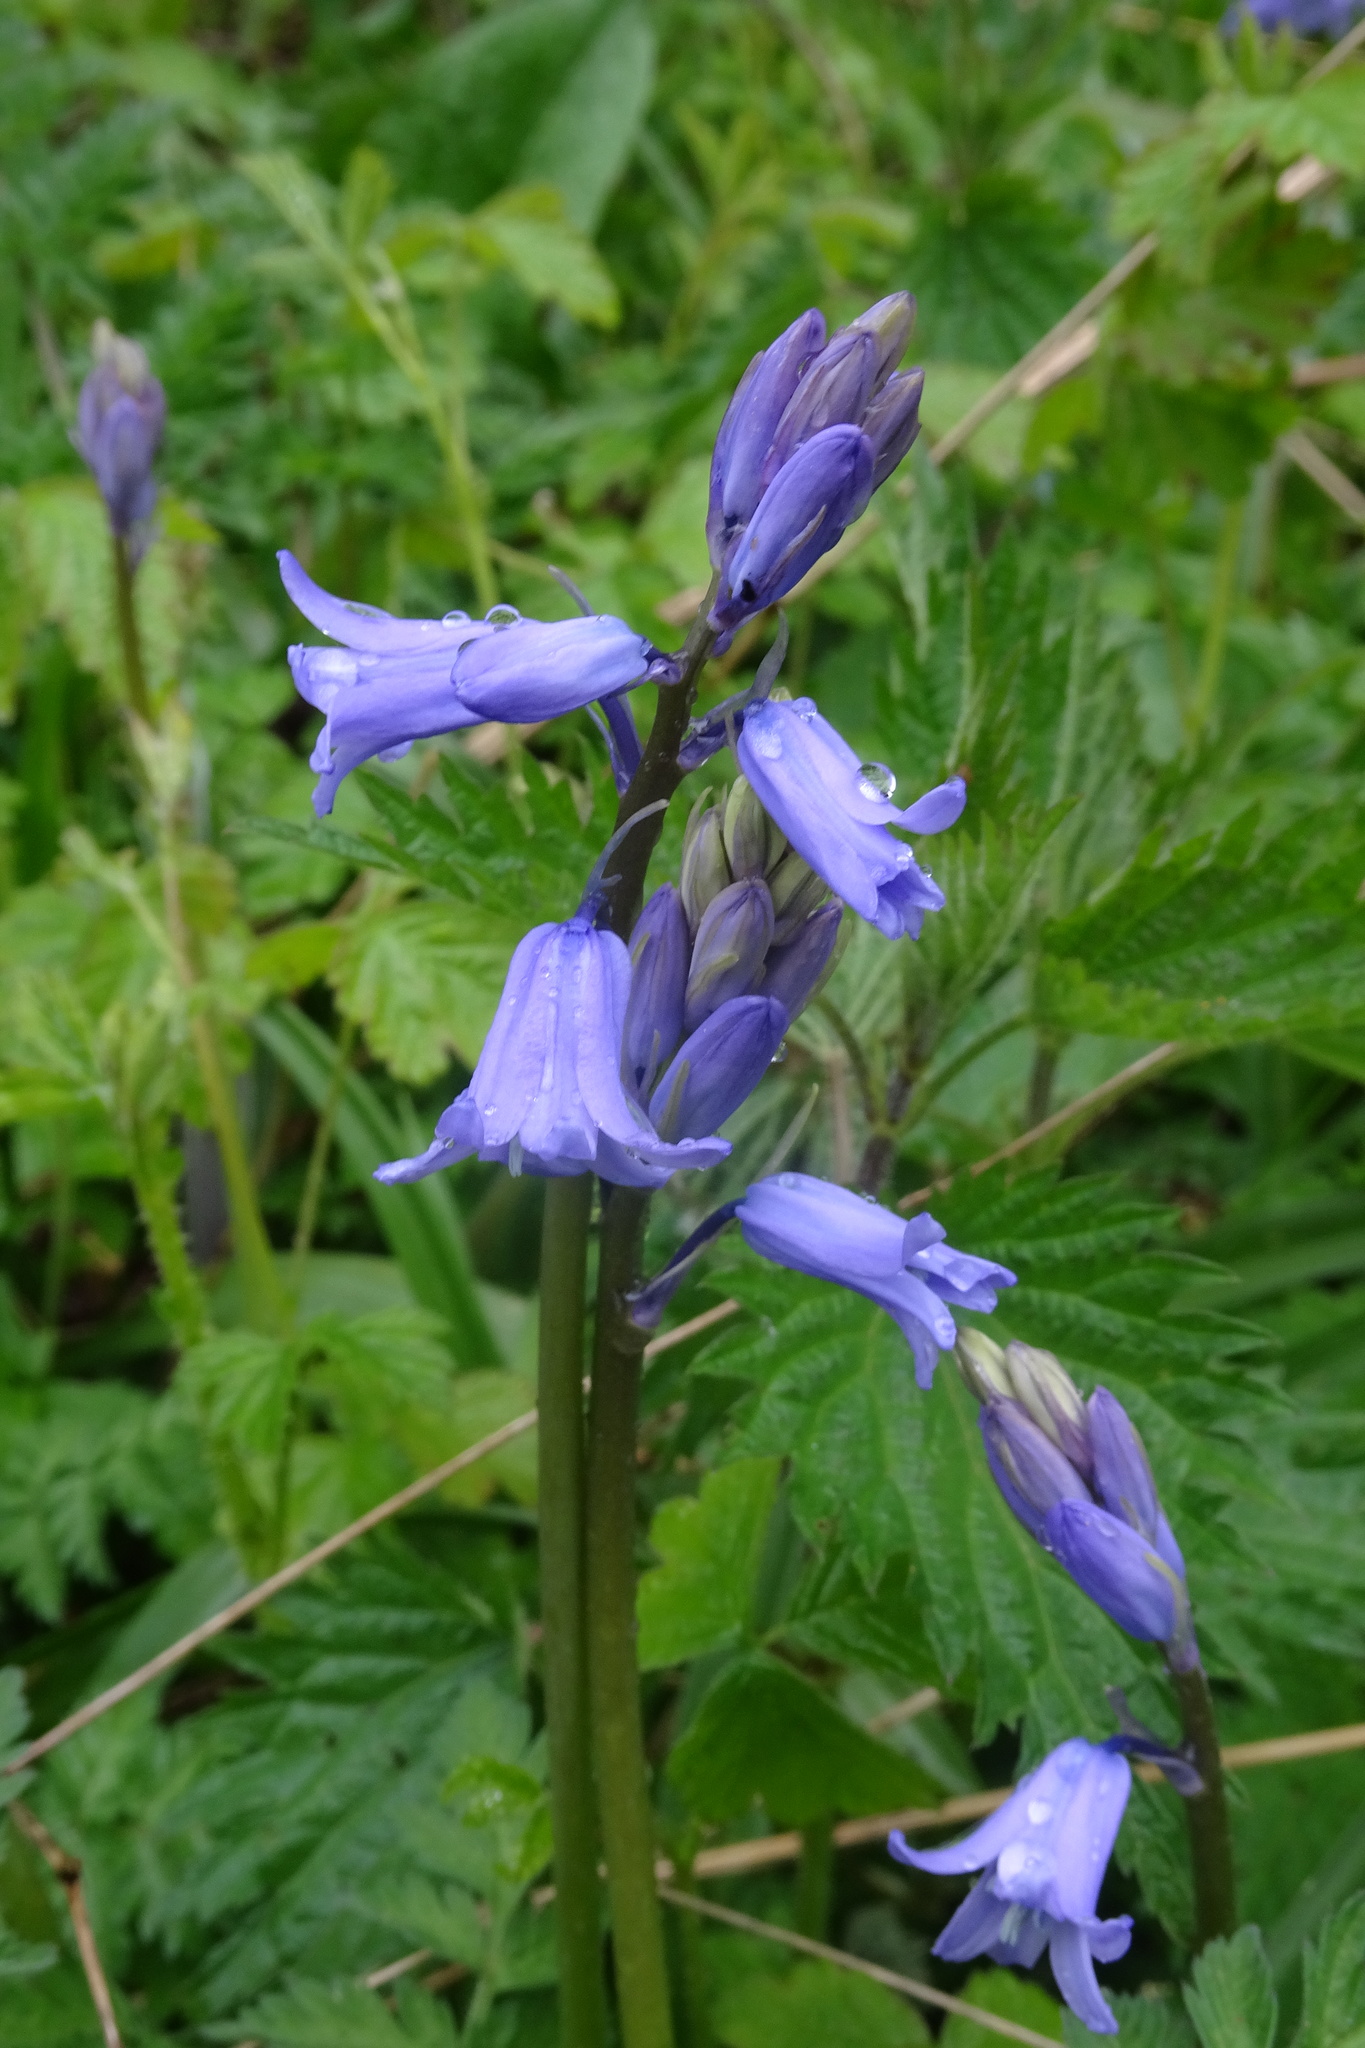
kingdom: Plantae
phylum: Tracheophyta
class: Liliopsida
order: Asparagales
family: Asparagaceae
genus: Hyacinthoides
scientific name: Hyacinthoides hispanica
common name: Spanish bluebell
